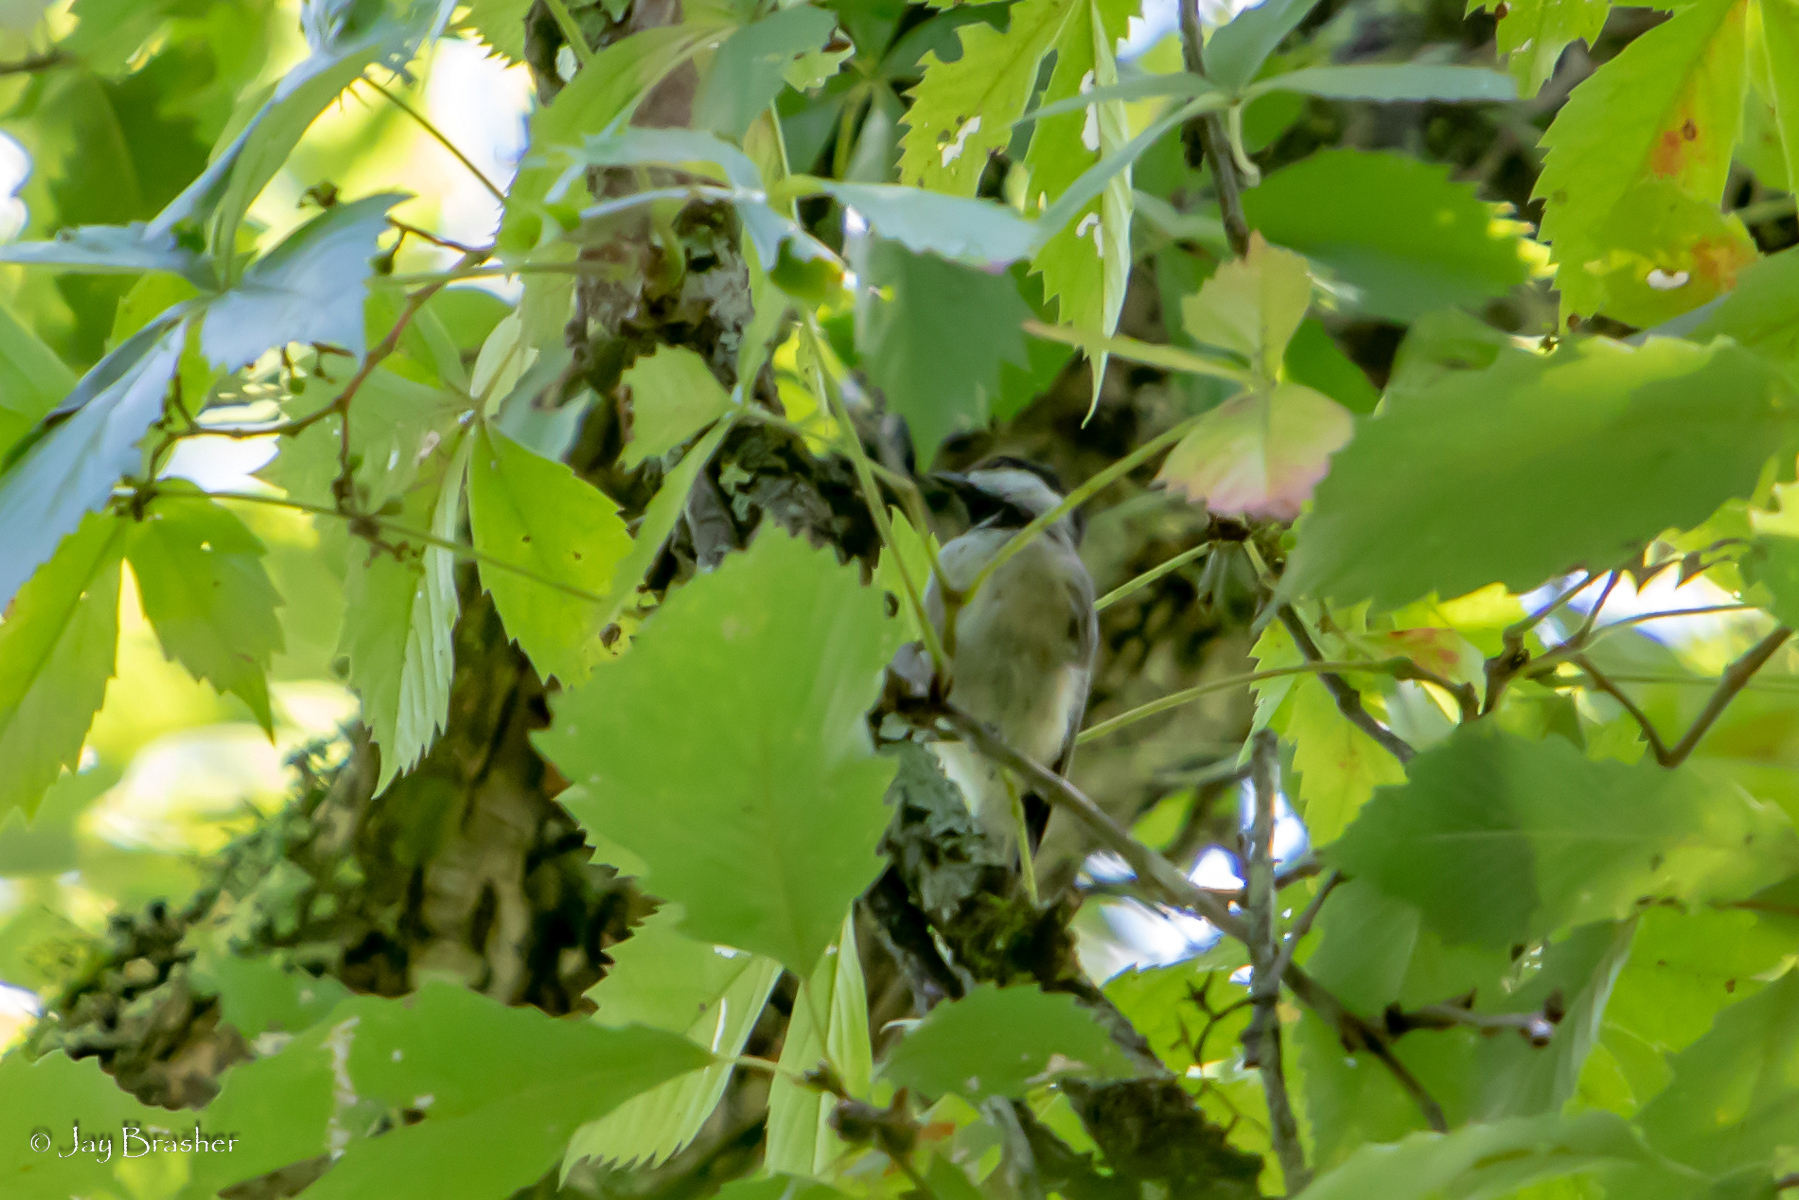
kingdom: Animalia
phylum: Chordata
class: Aves
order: Passeriformes
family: Paridae
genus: Poecile
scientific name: Poecile carolinensis
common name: Carolina chickadee
